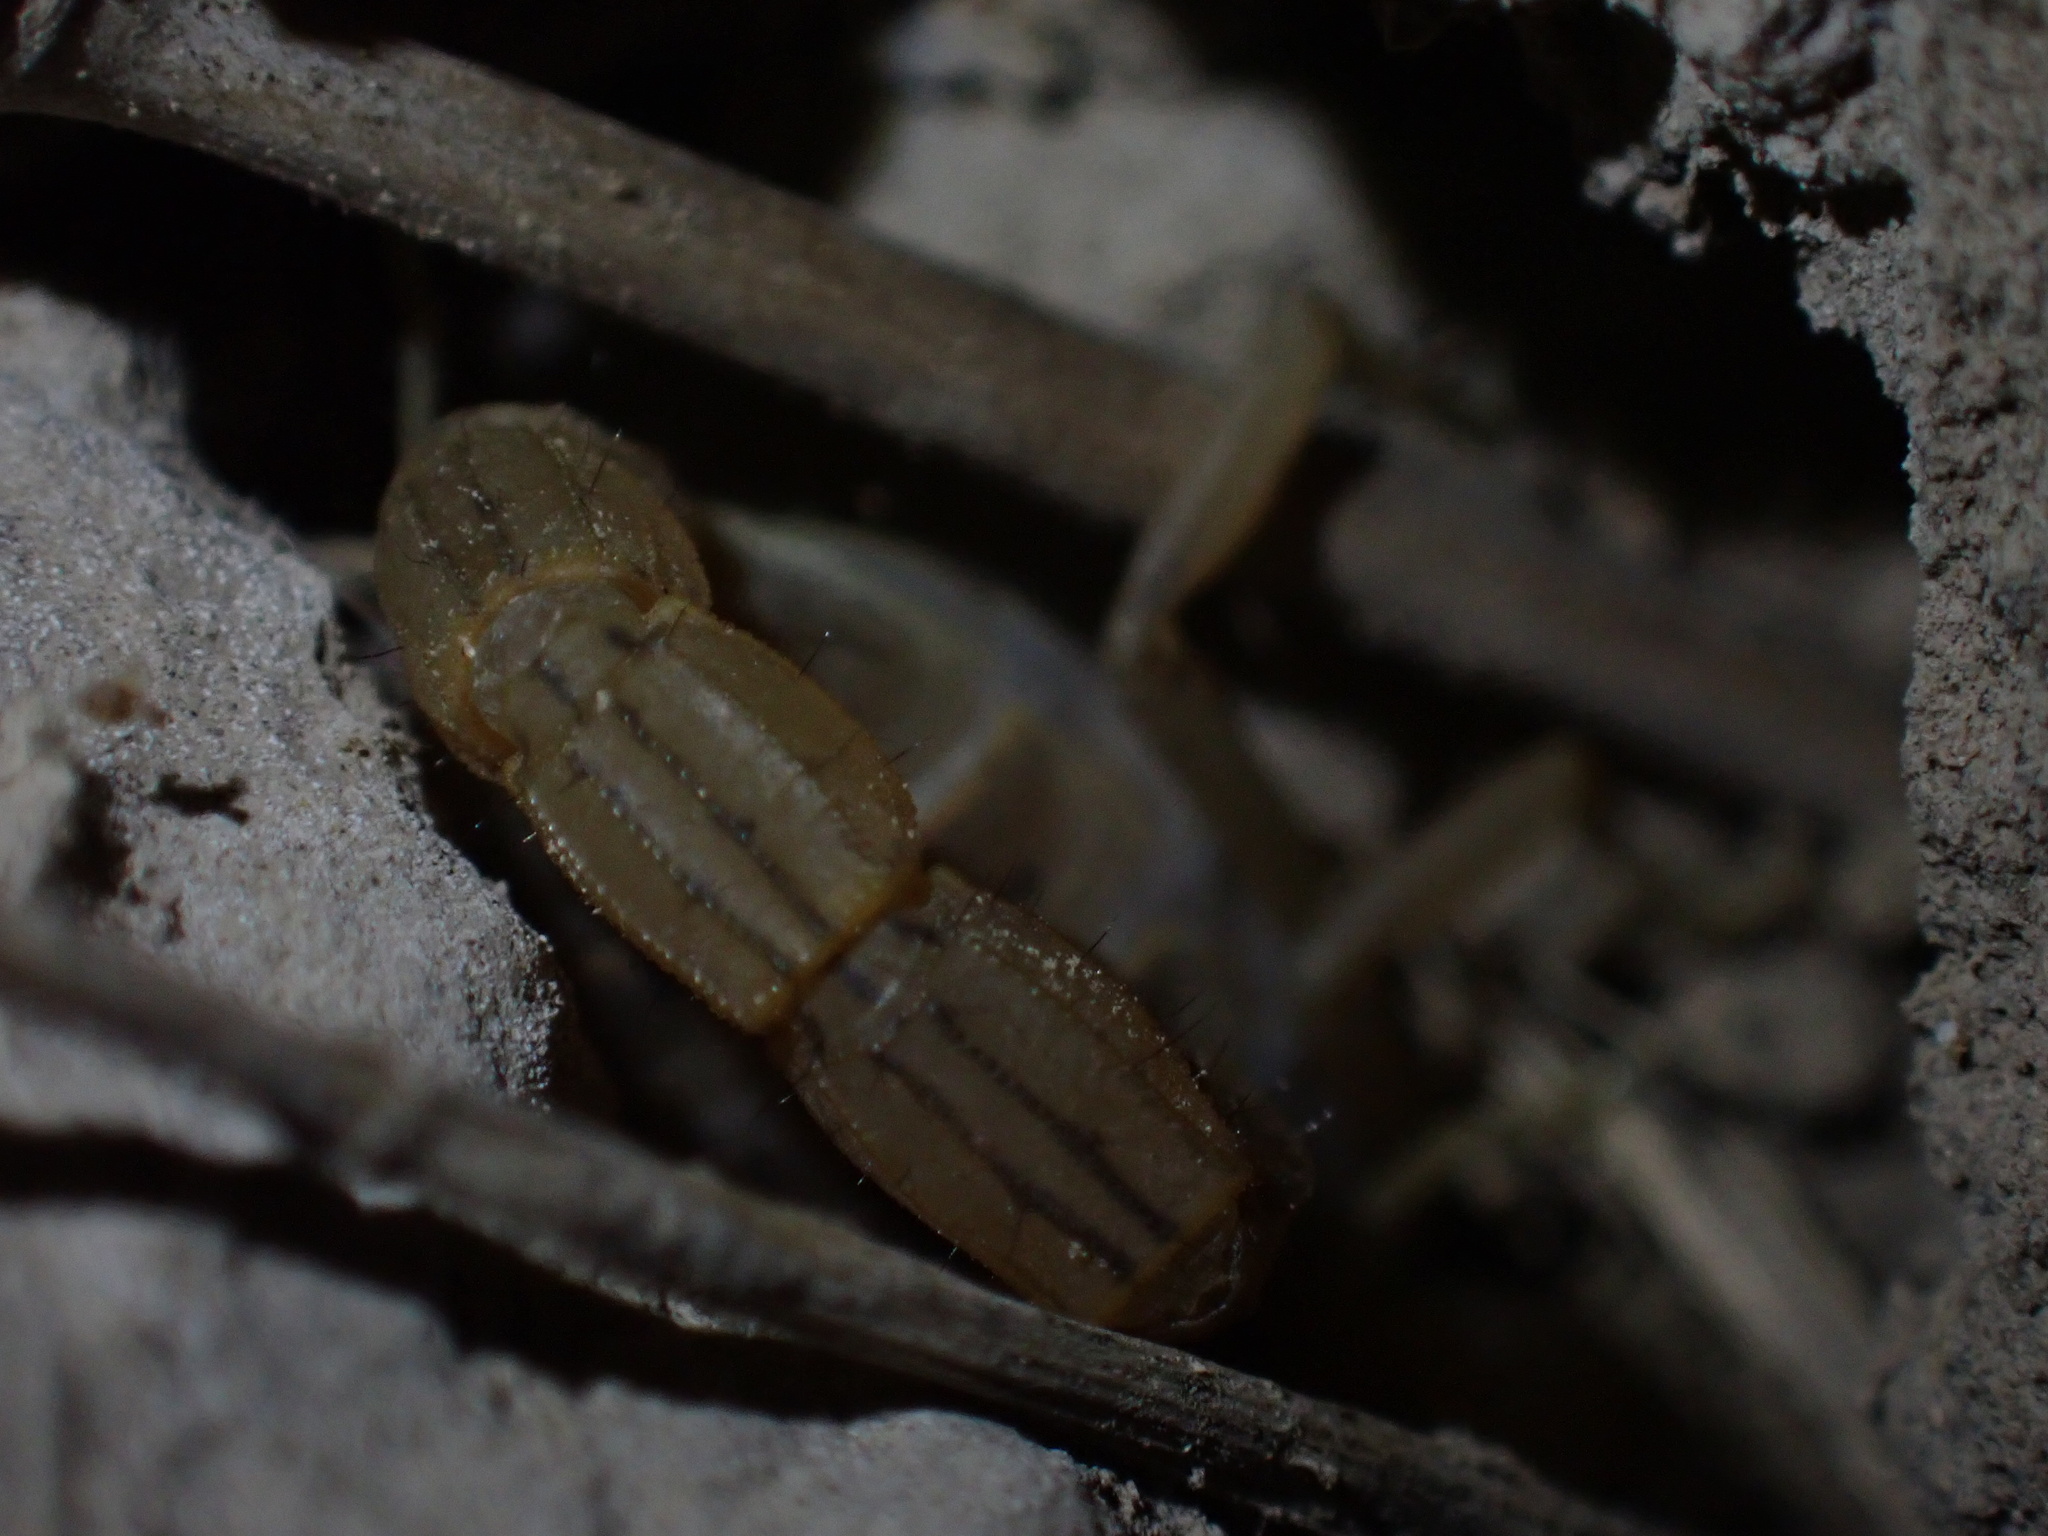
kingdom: Animalia
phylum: Arthropoda
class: Arachnida
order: Scorpiones
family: Buthidae
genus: Mesobuthus
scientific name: Mesobuthus mirshamsii
